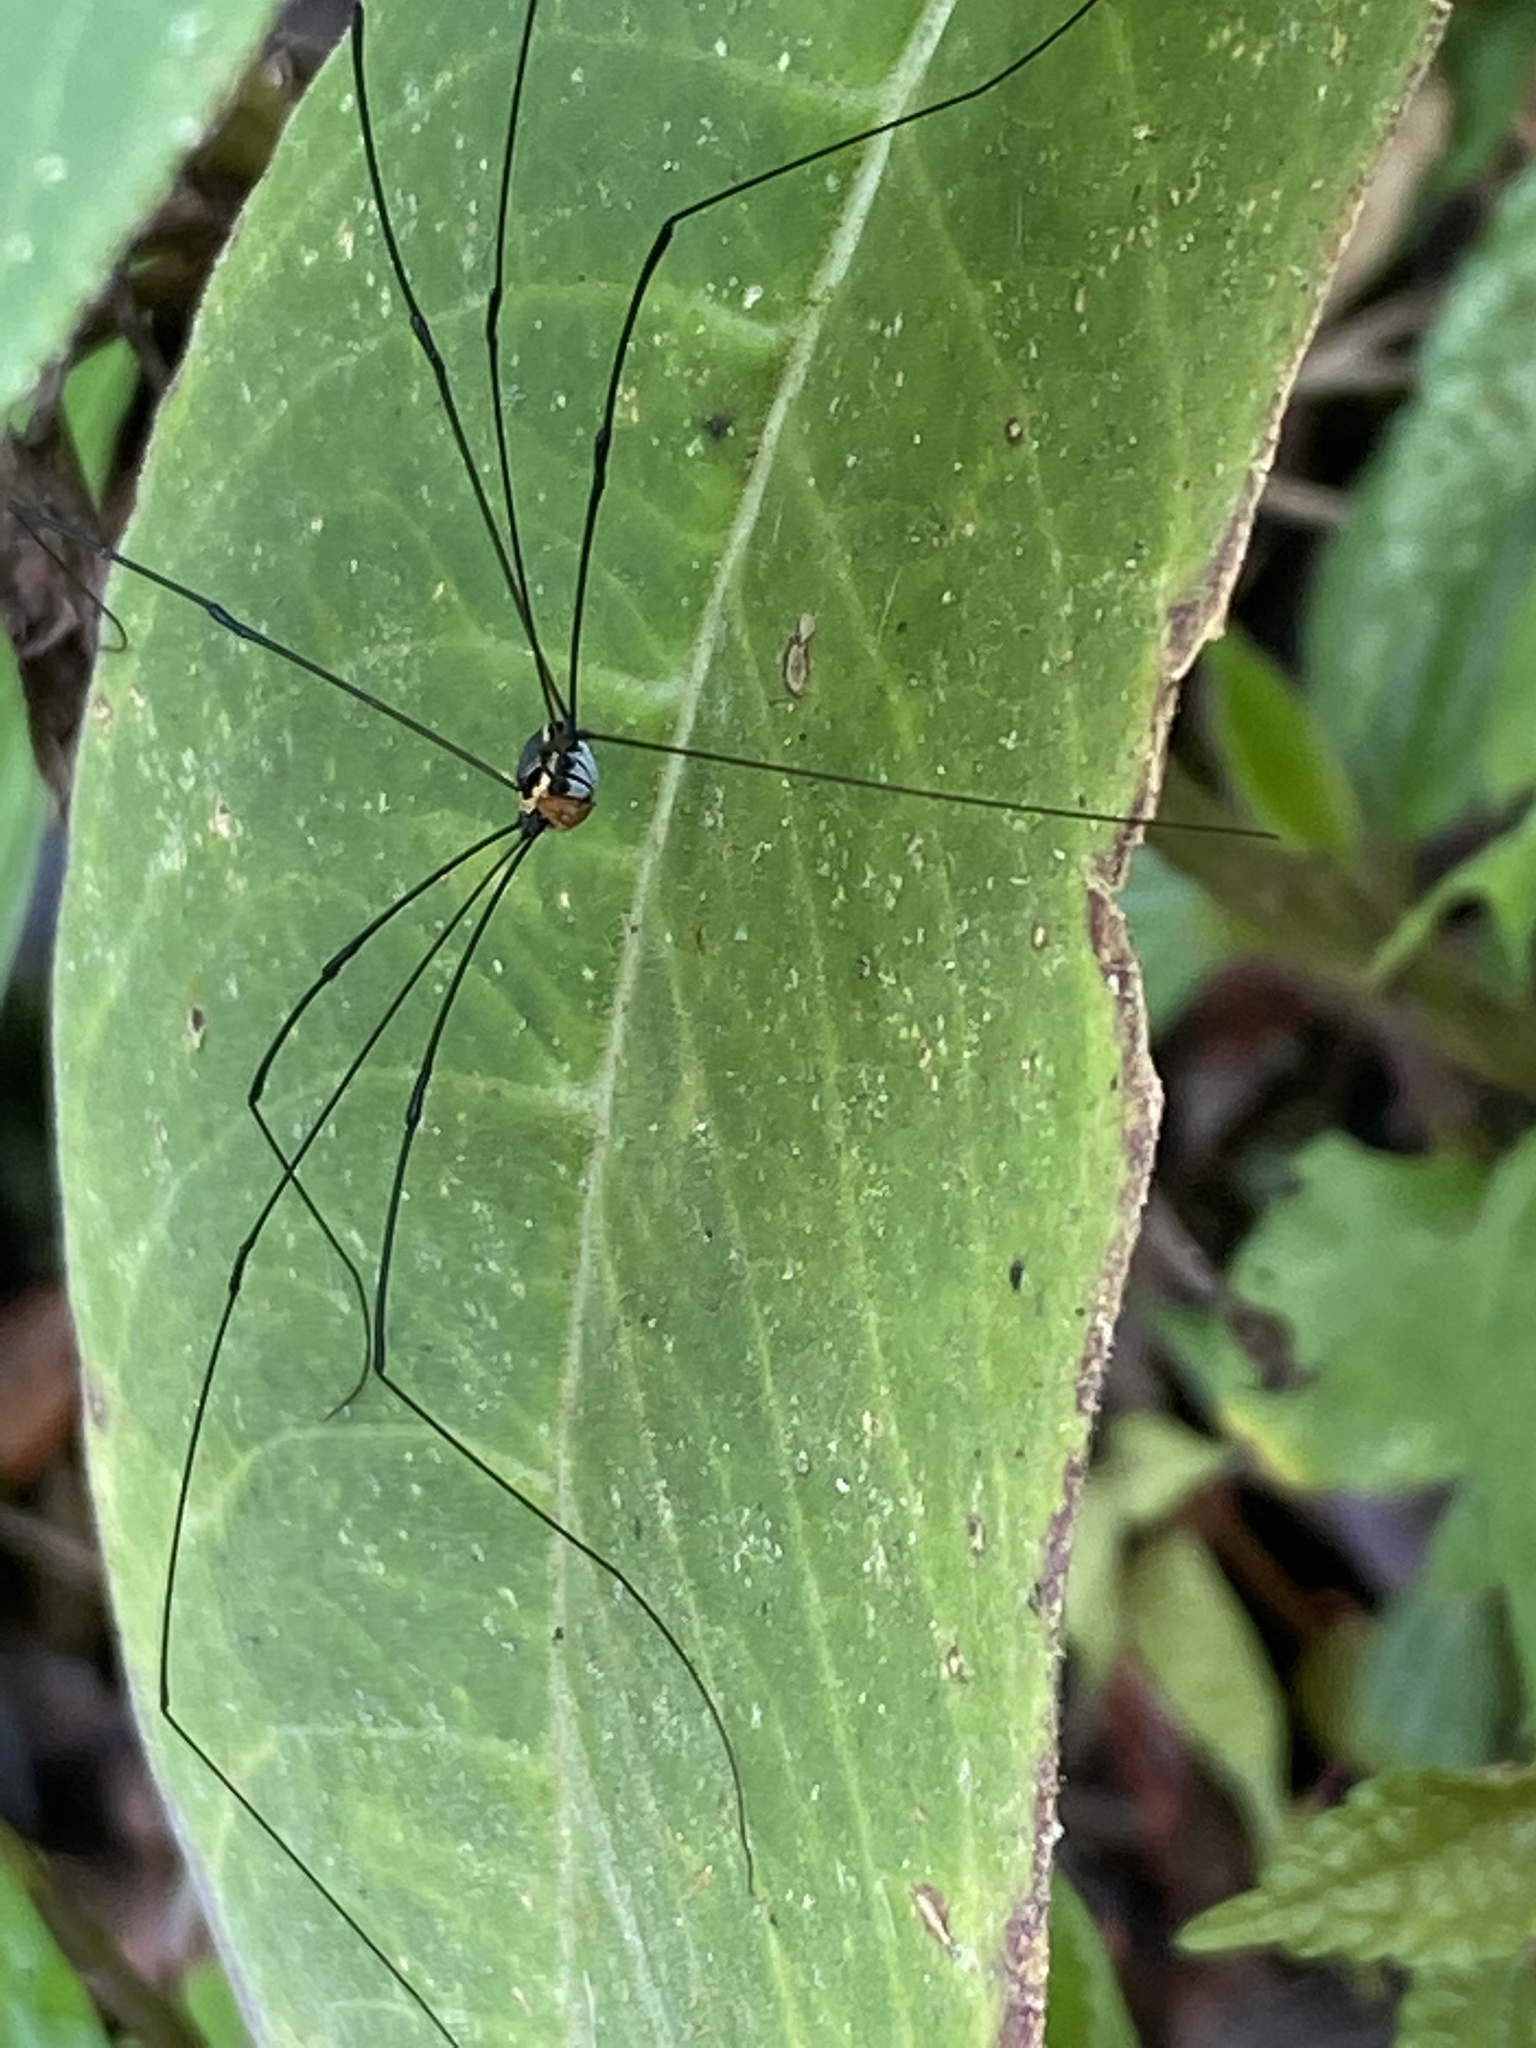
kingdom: Animalia
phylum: Arthropoda
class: Arachnida
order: Opiliones
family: Sclerosomatidae
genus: Jussara
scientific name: Jussara taeniata
